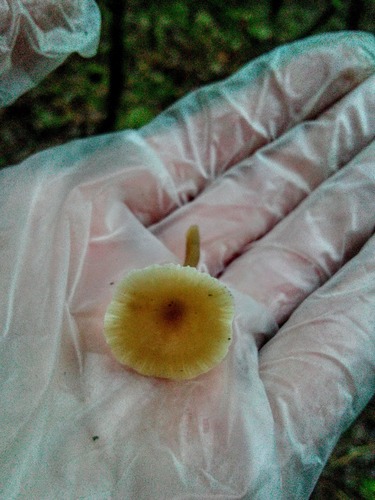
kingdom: Fungi
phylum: Basidiomycota
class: Agaricomycetes
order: Agaricales
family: Tricholomataceae
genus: Clitocybe
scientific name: Clitocybe
